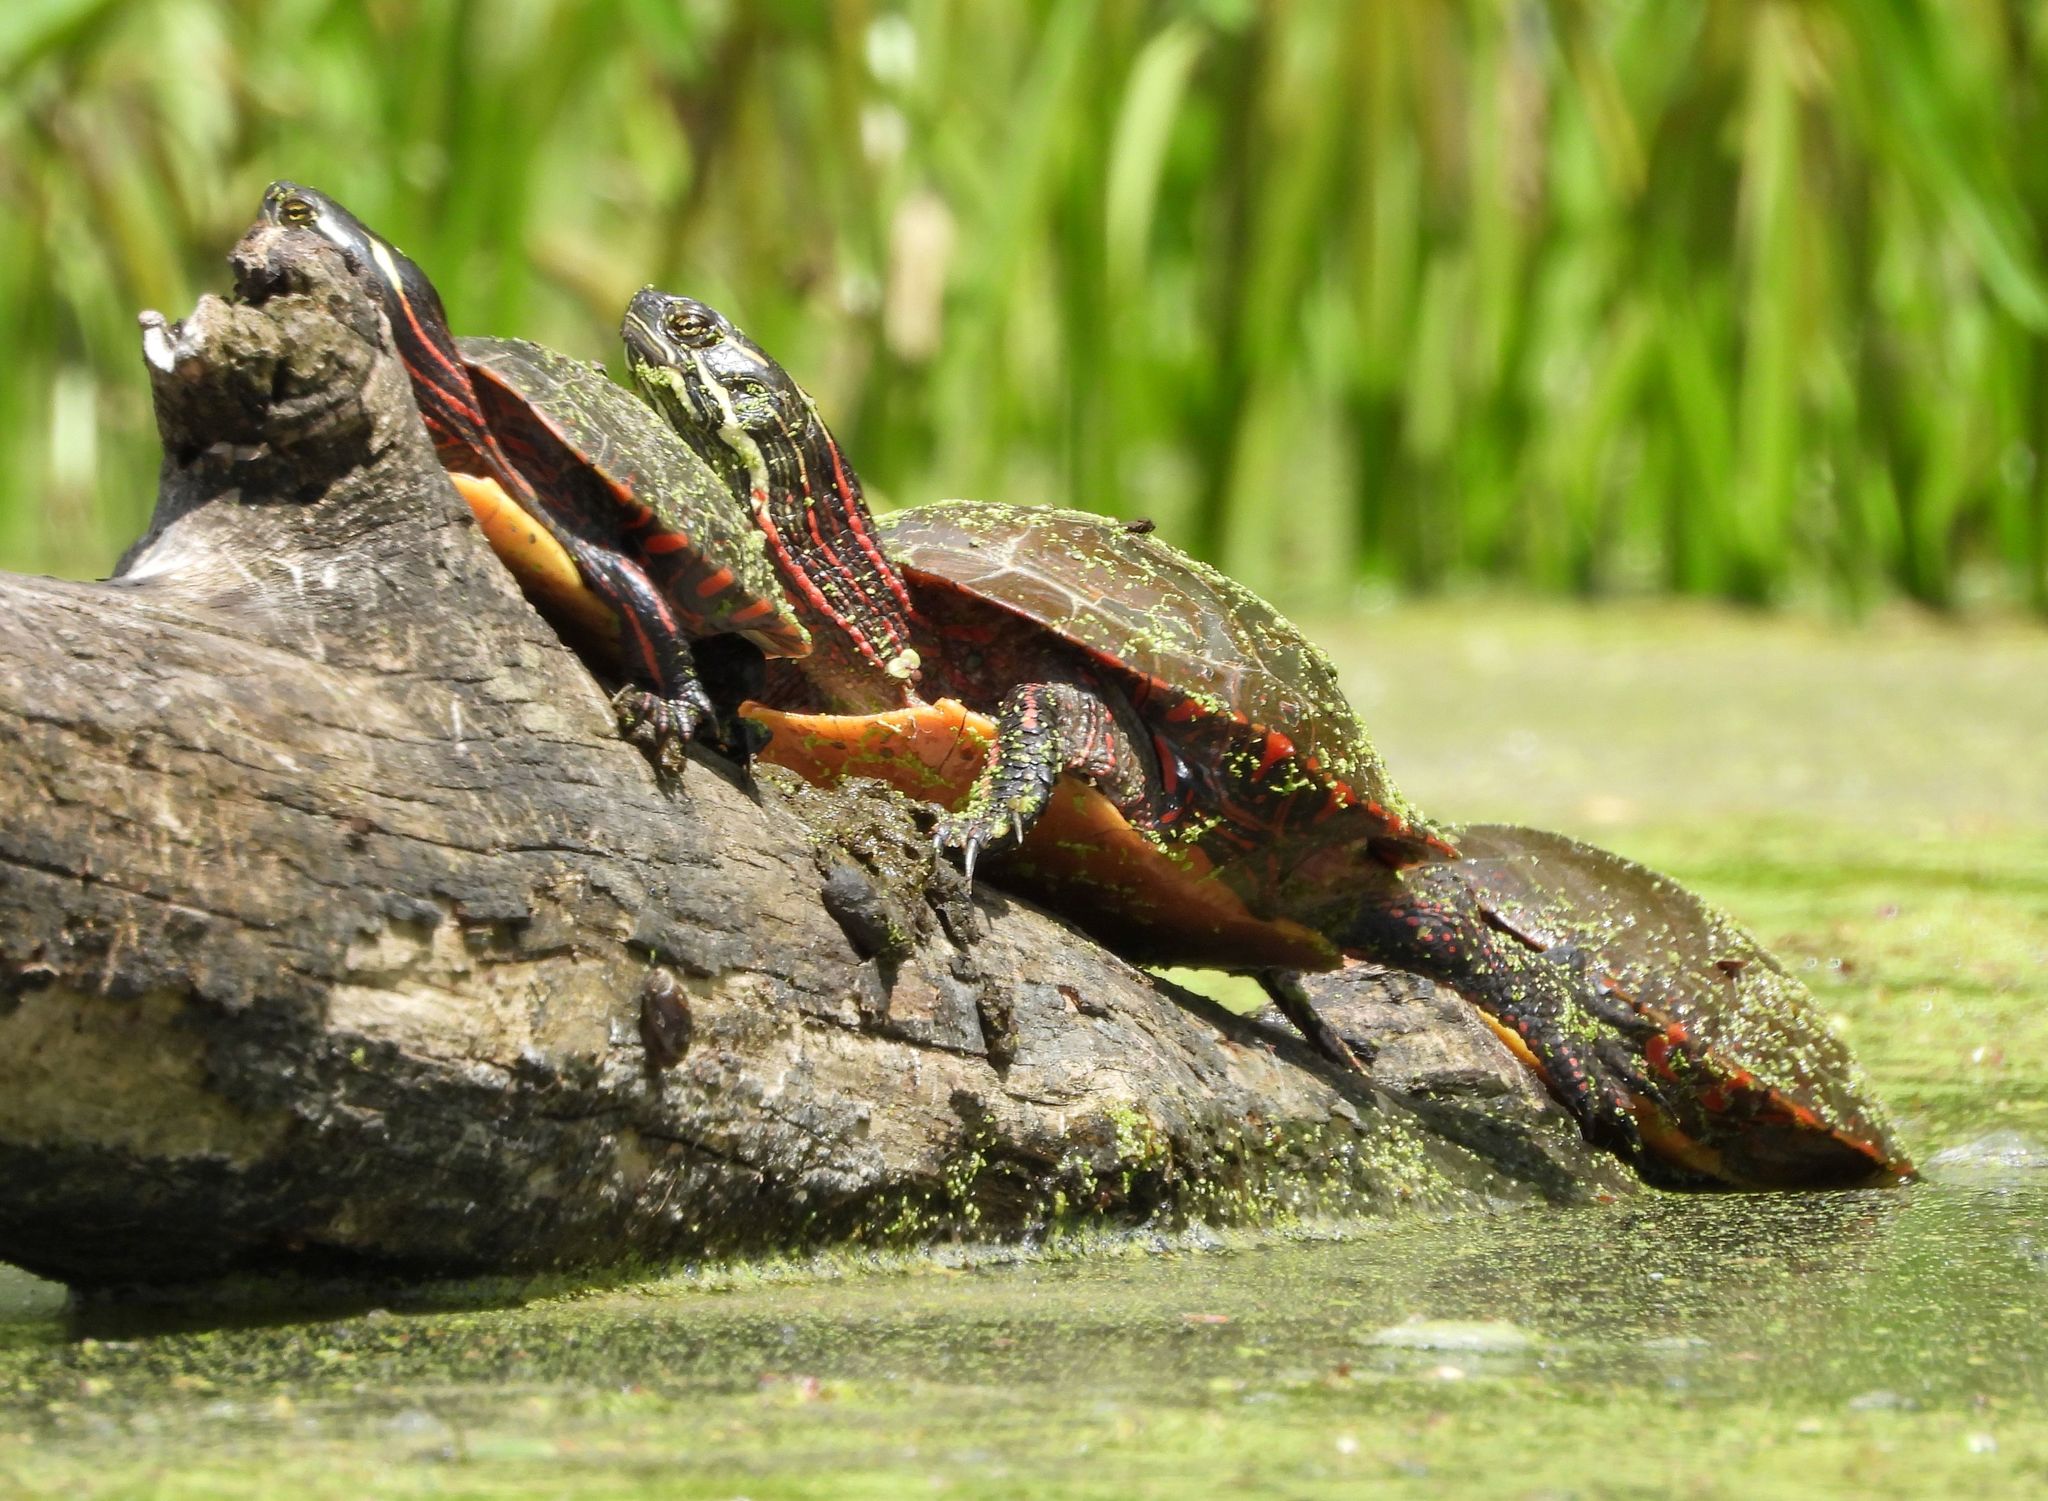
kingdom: Animalia
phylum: Chordata
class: Testudines
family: Emydidae
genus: Chrysemys
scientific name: Chrysemys picta
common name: Painted turtle
